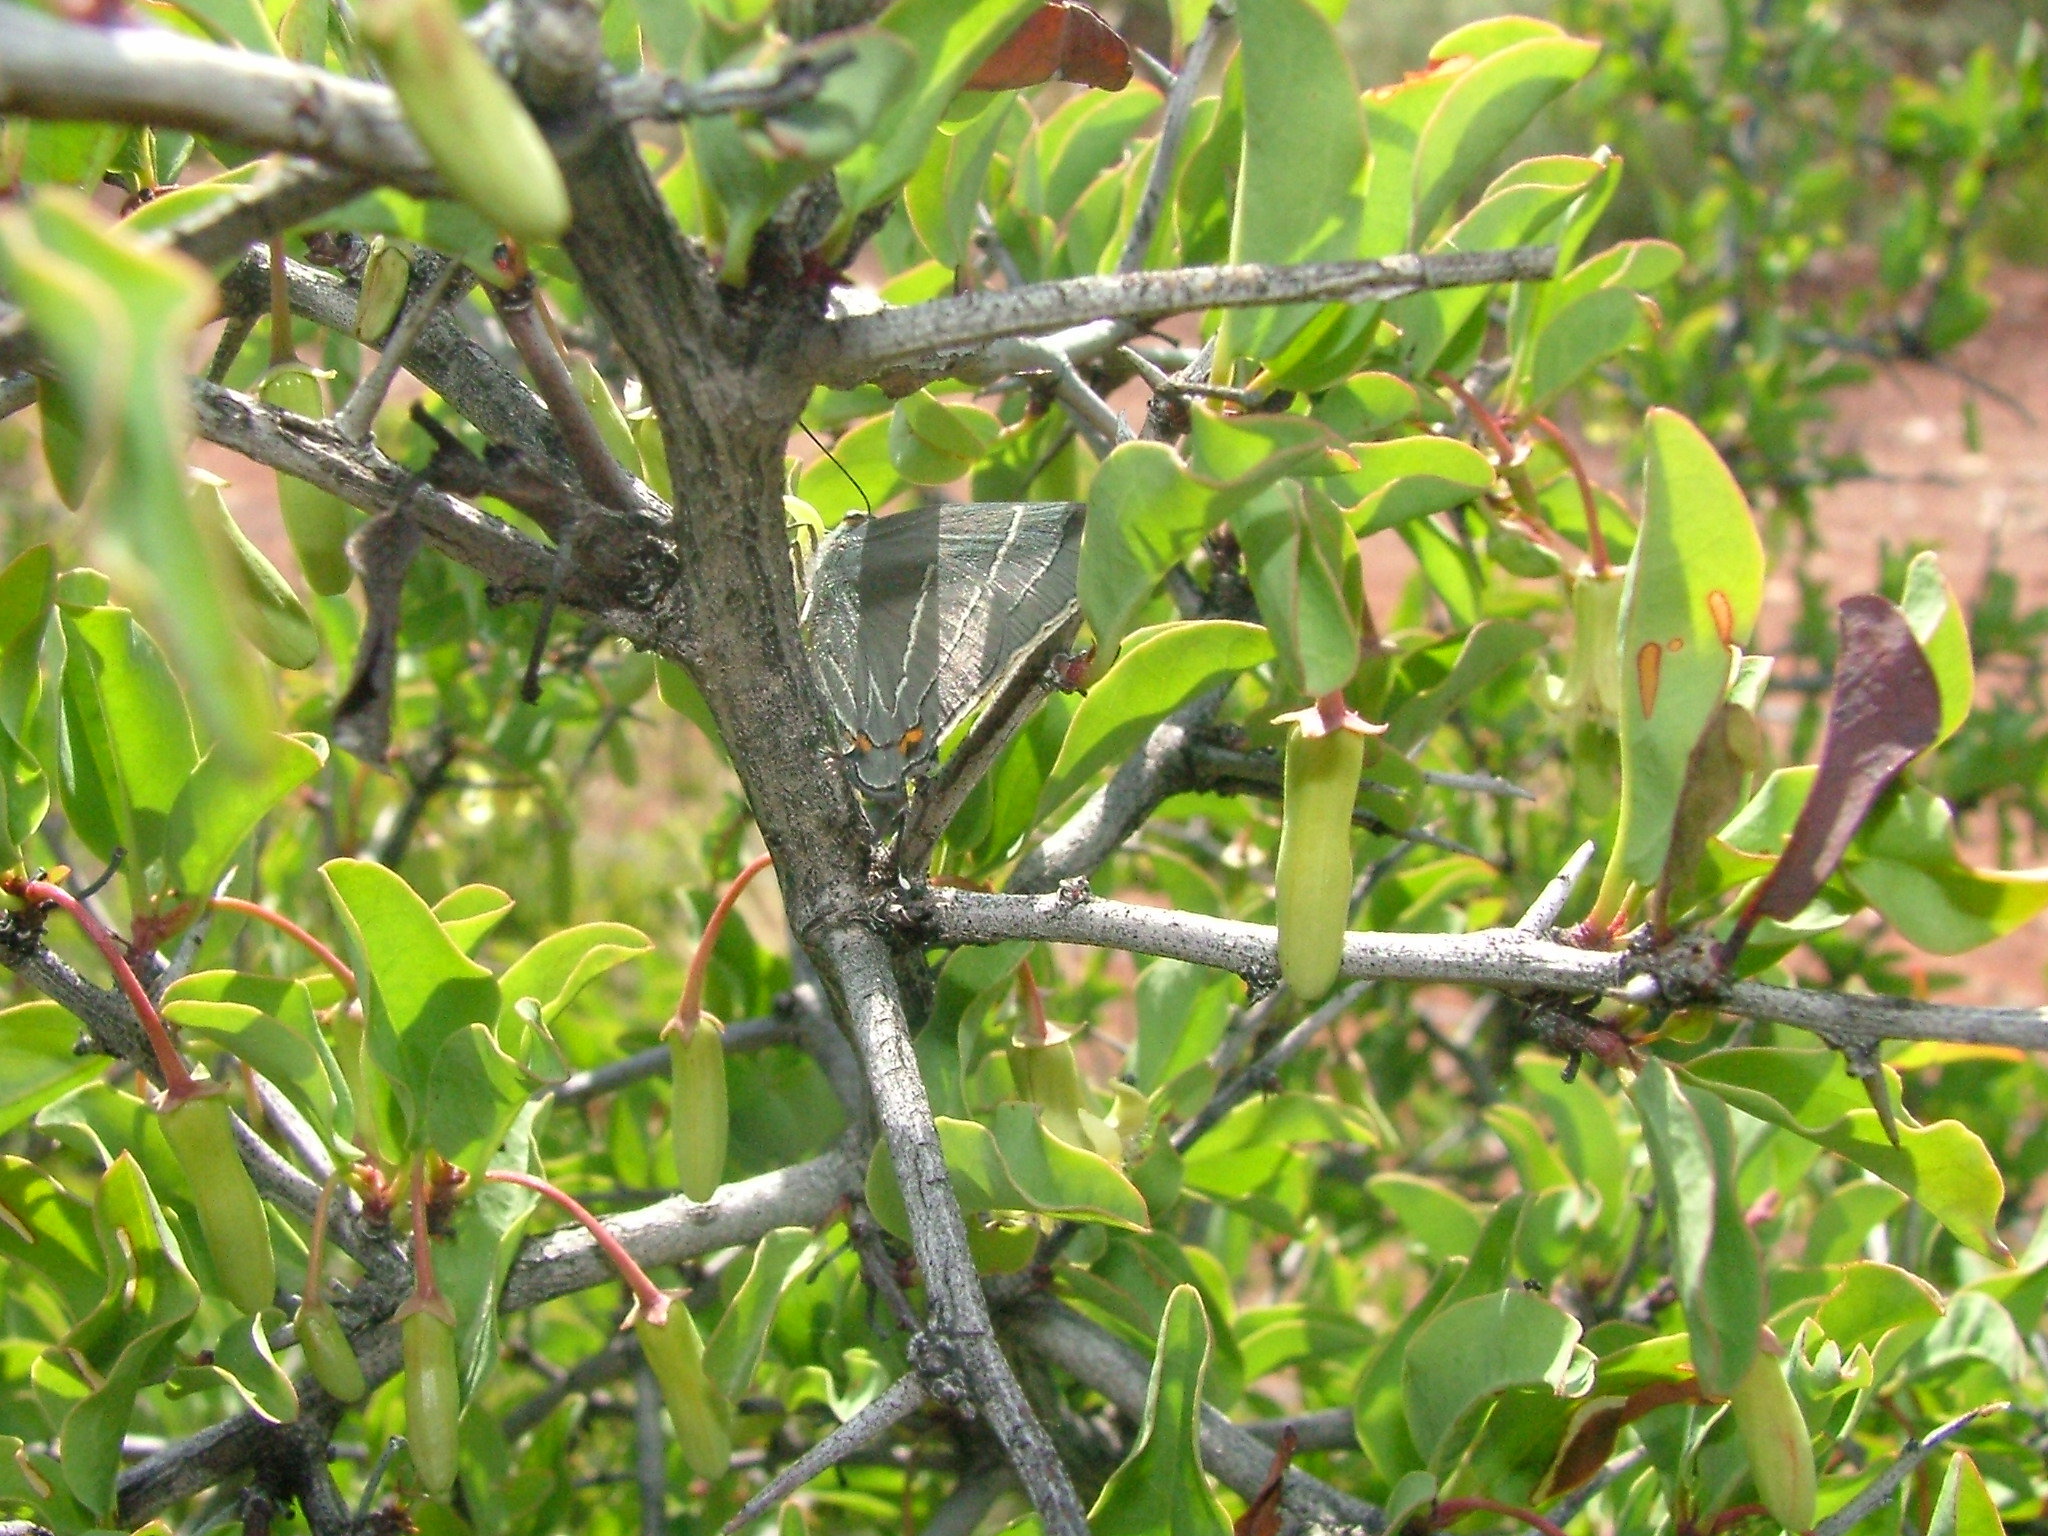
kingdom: Plantae
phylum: Tracheophyta
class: Magnoliopsida
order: Santalales
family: Ximeniaceae
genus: Ximenia
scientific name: Ximenia americana
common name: Tallowwood
